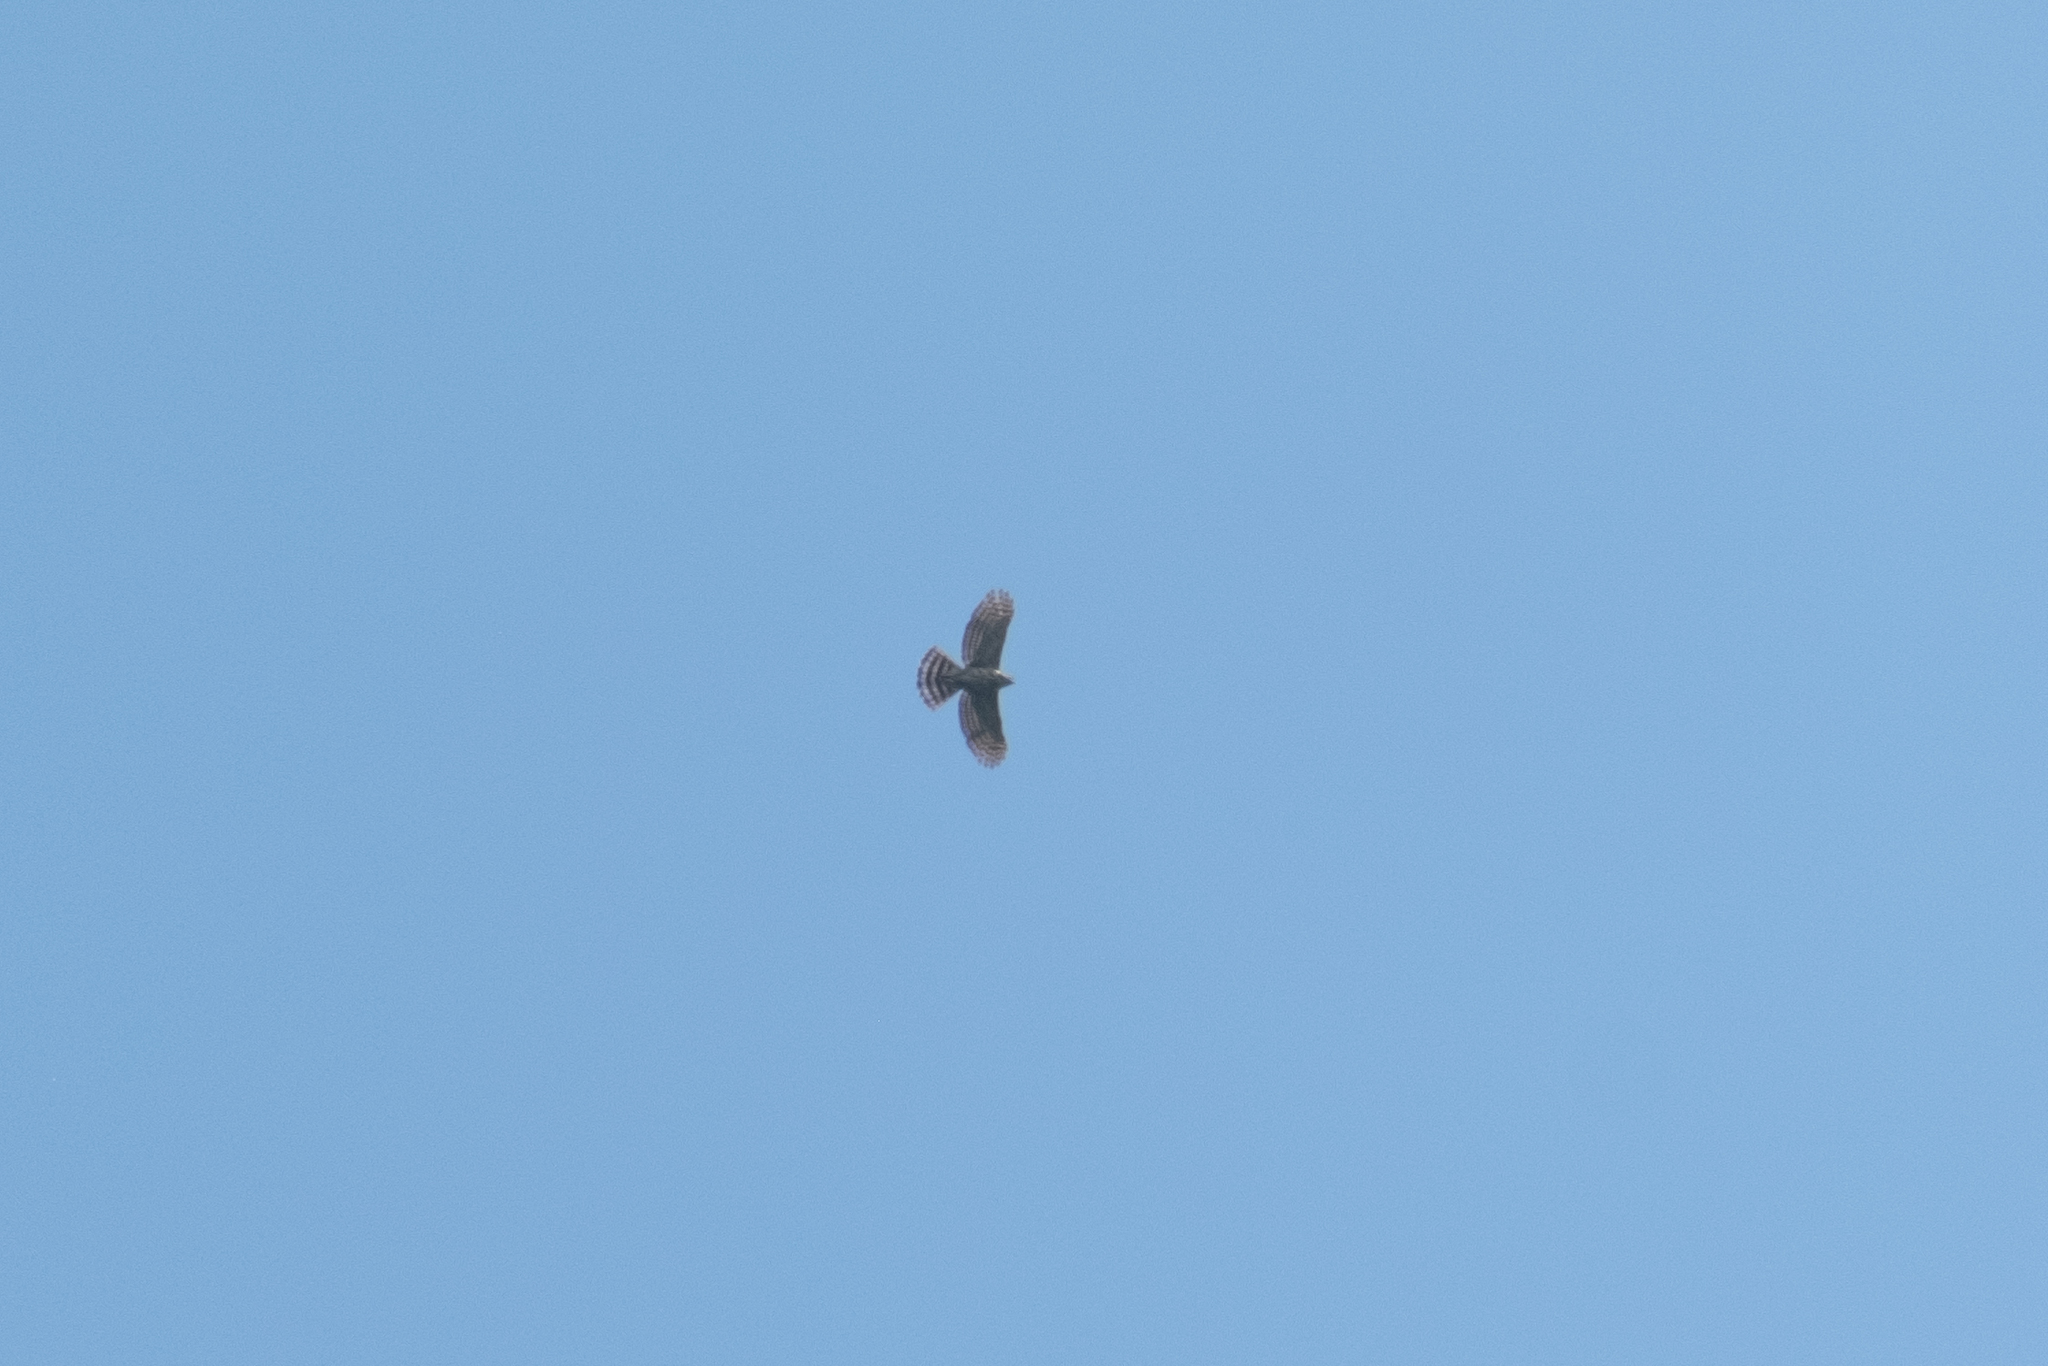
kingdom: Animalia
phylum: Chordata
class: Aves
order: Accipitriformes
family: Accipitridae
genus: Accipiter
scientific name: Accipiter trivirgatus
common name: Crested goshawk
